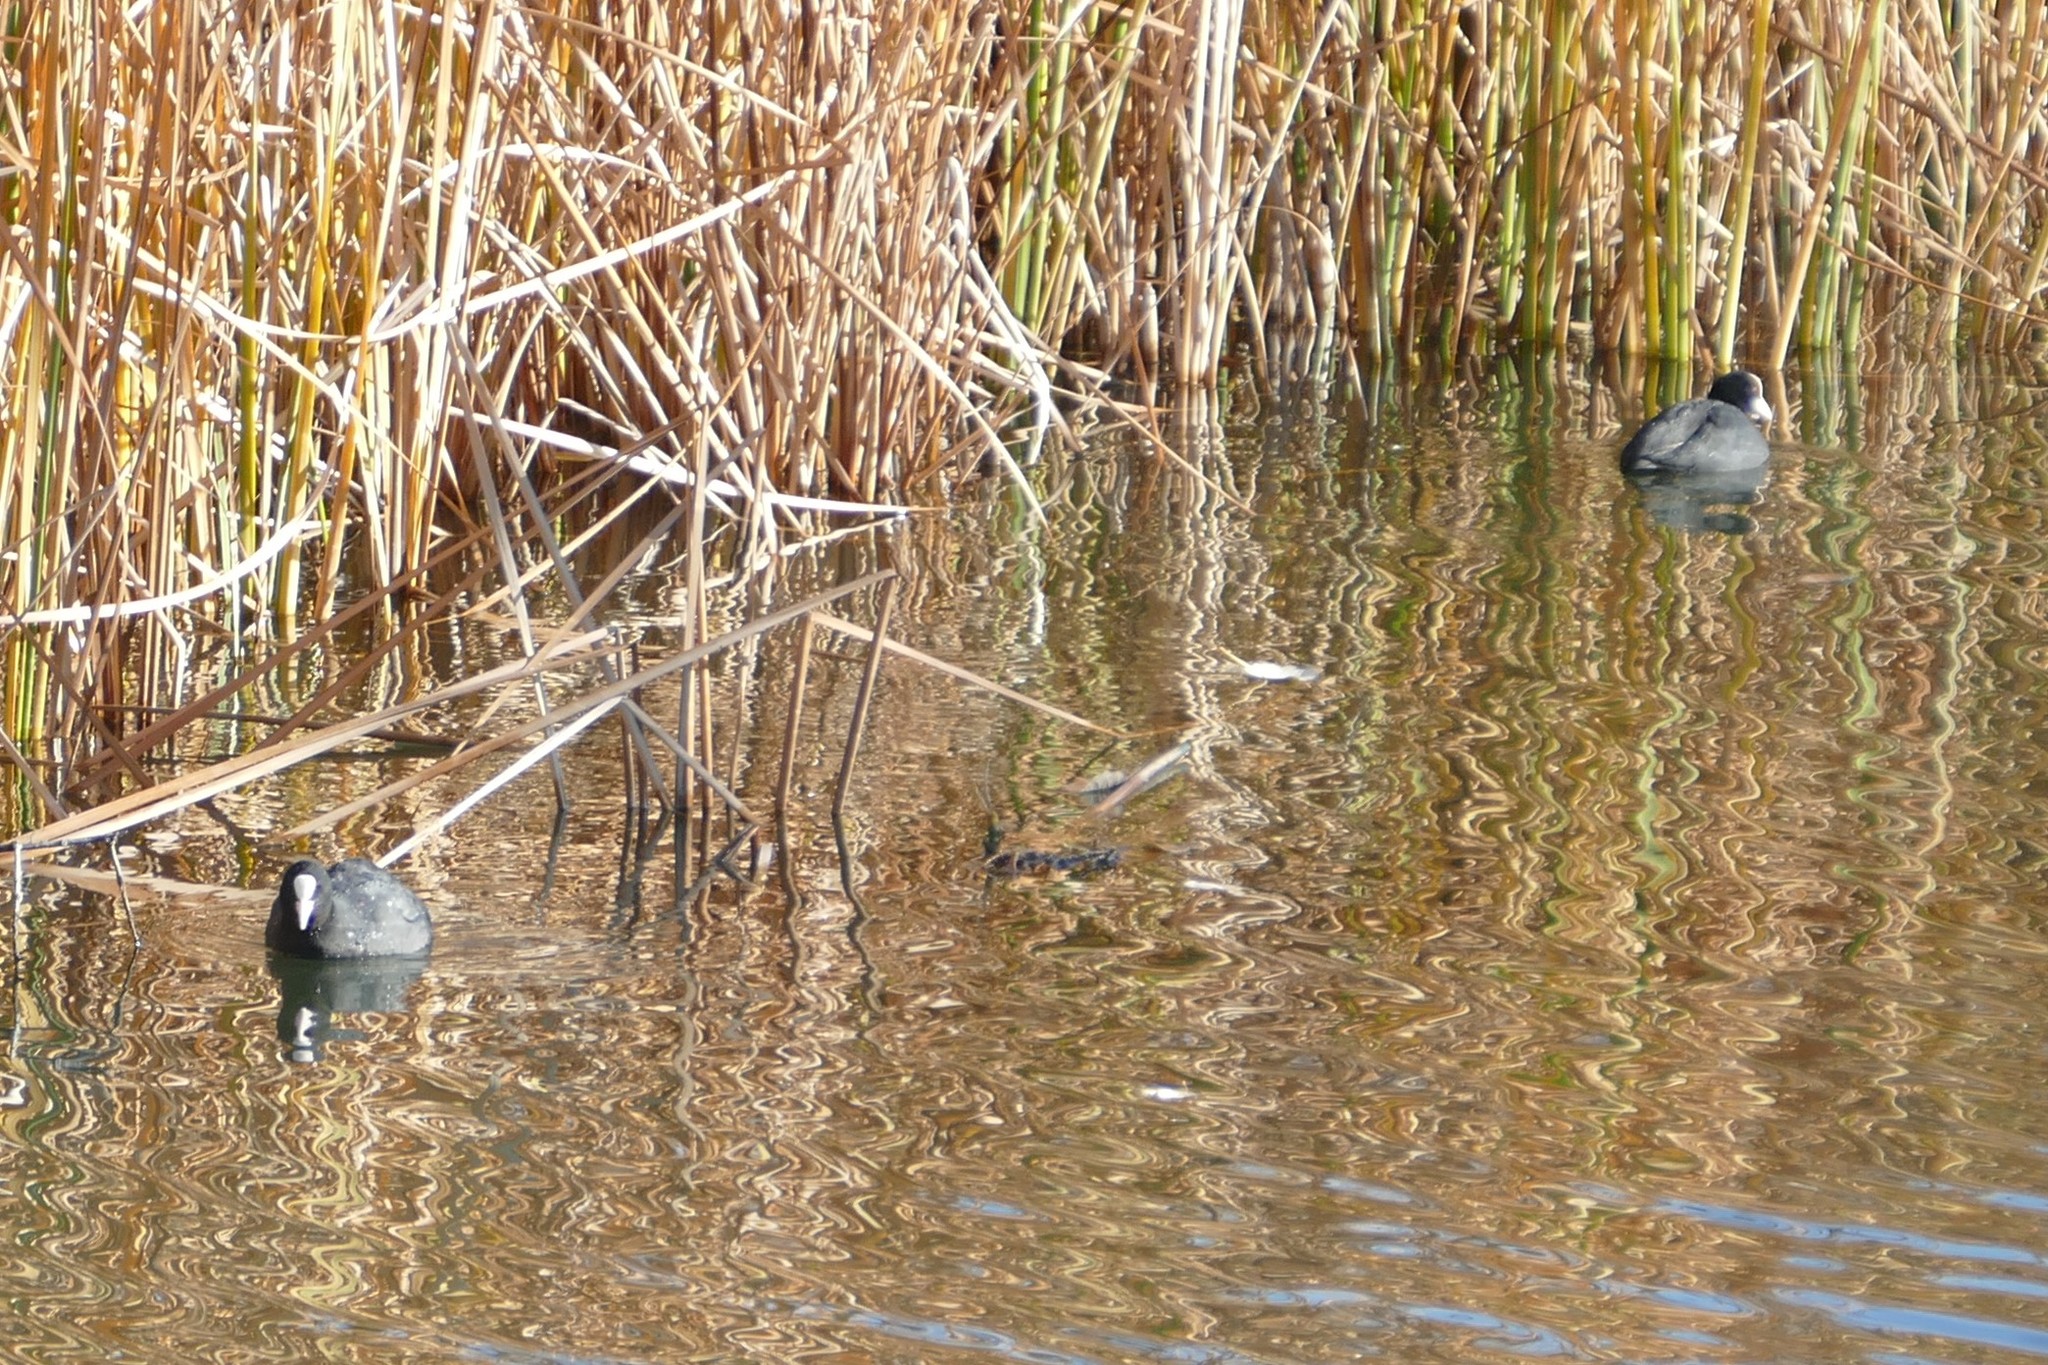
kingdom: Animalia
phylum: Chordata
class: Aves
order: Gruiformes
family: Rallidae
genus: Fulica
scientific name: Fulica atra
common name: Eurasian coot
